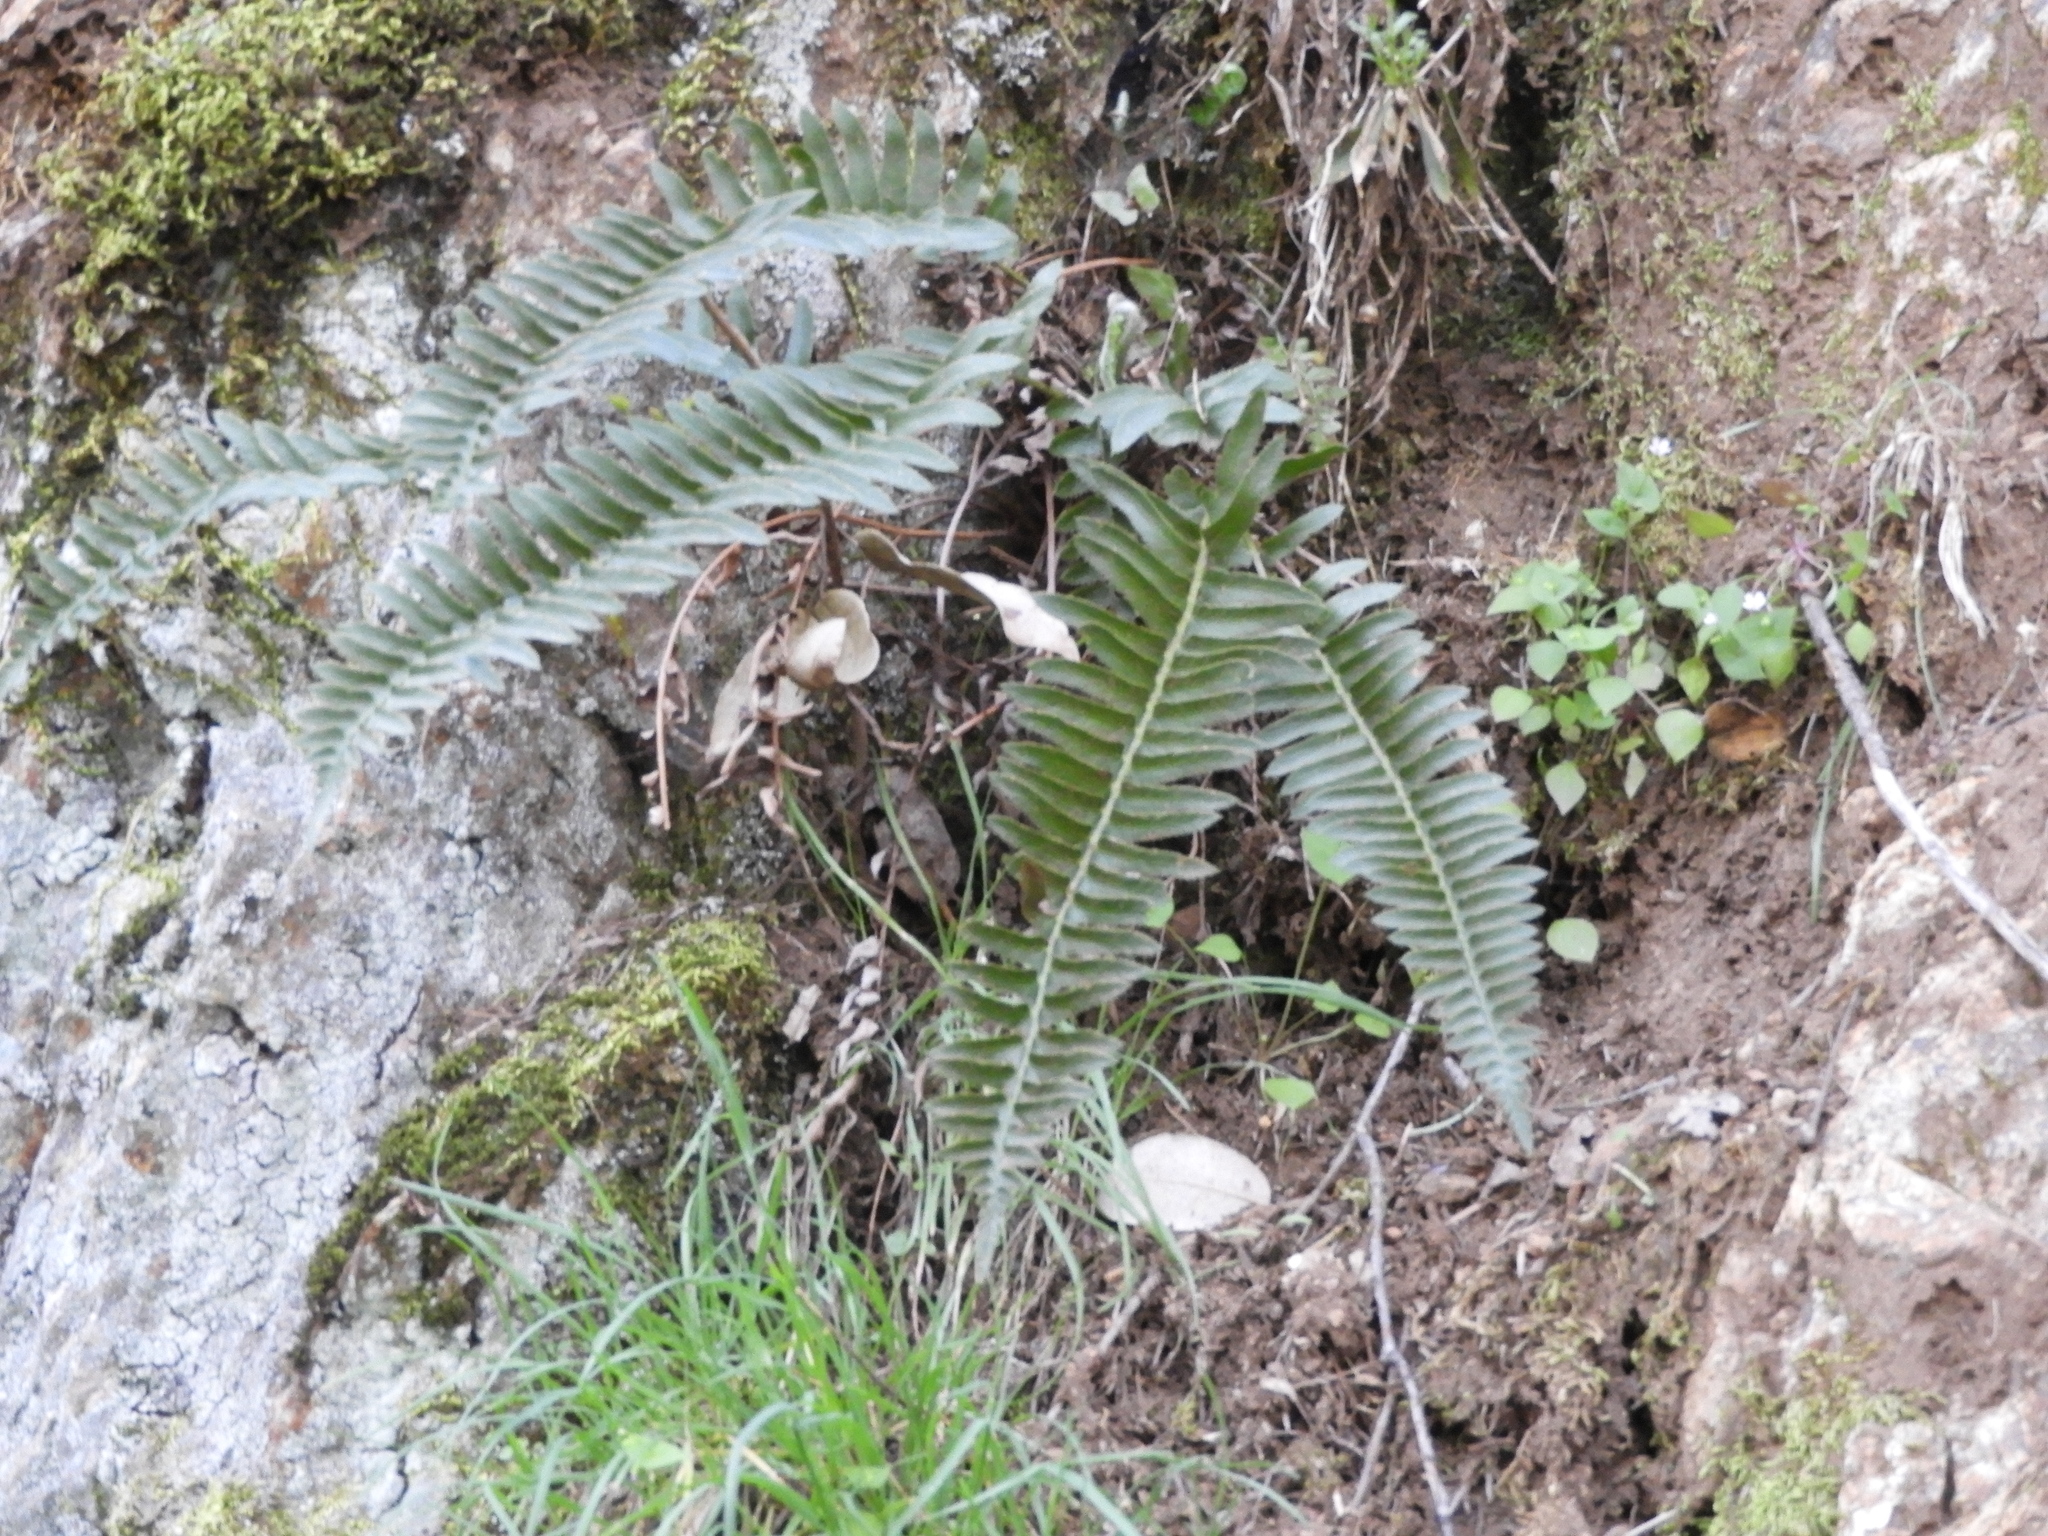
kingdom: Plantae
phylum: Tracheophyta
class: Polypodiopsida
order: Polypodiales
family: Dryopteridaceae
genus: Polystichum
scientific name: Polystichum imbricans
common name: Dwarf western sword fern
